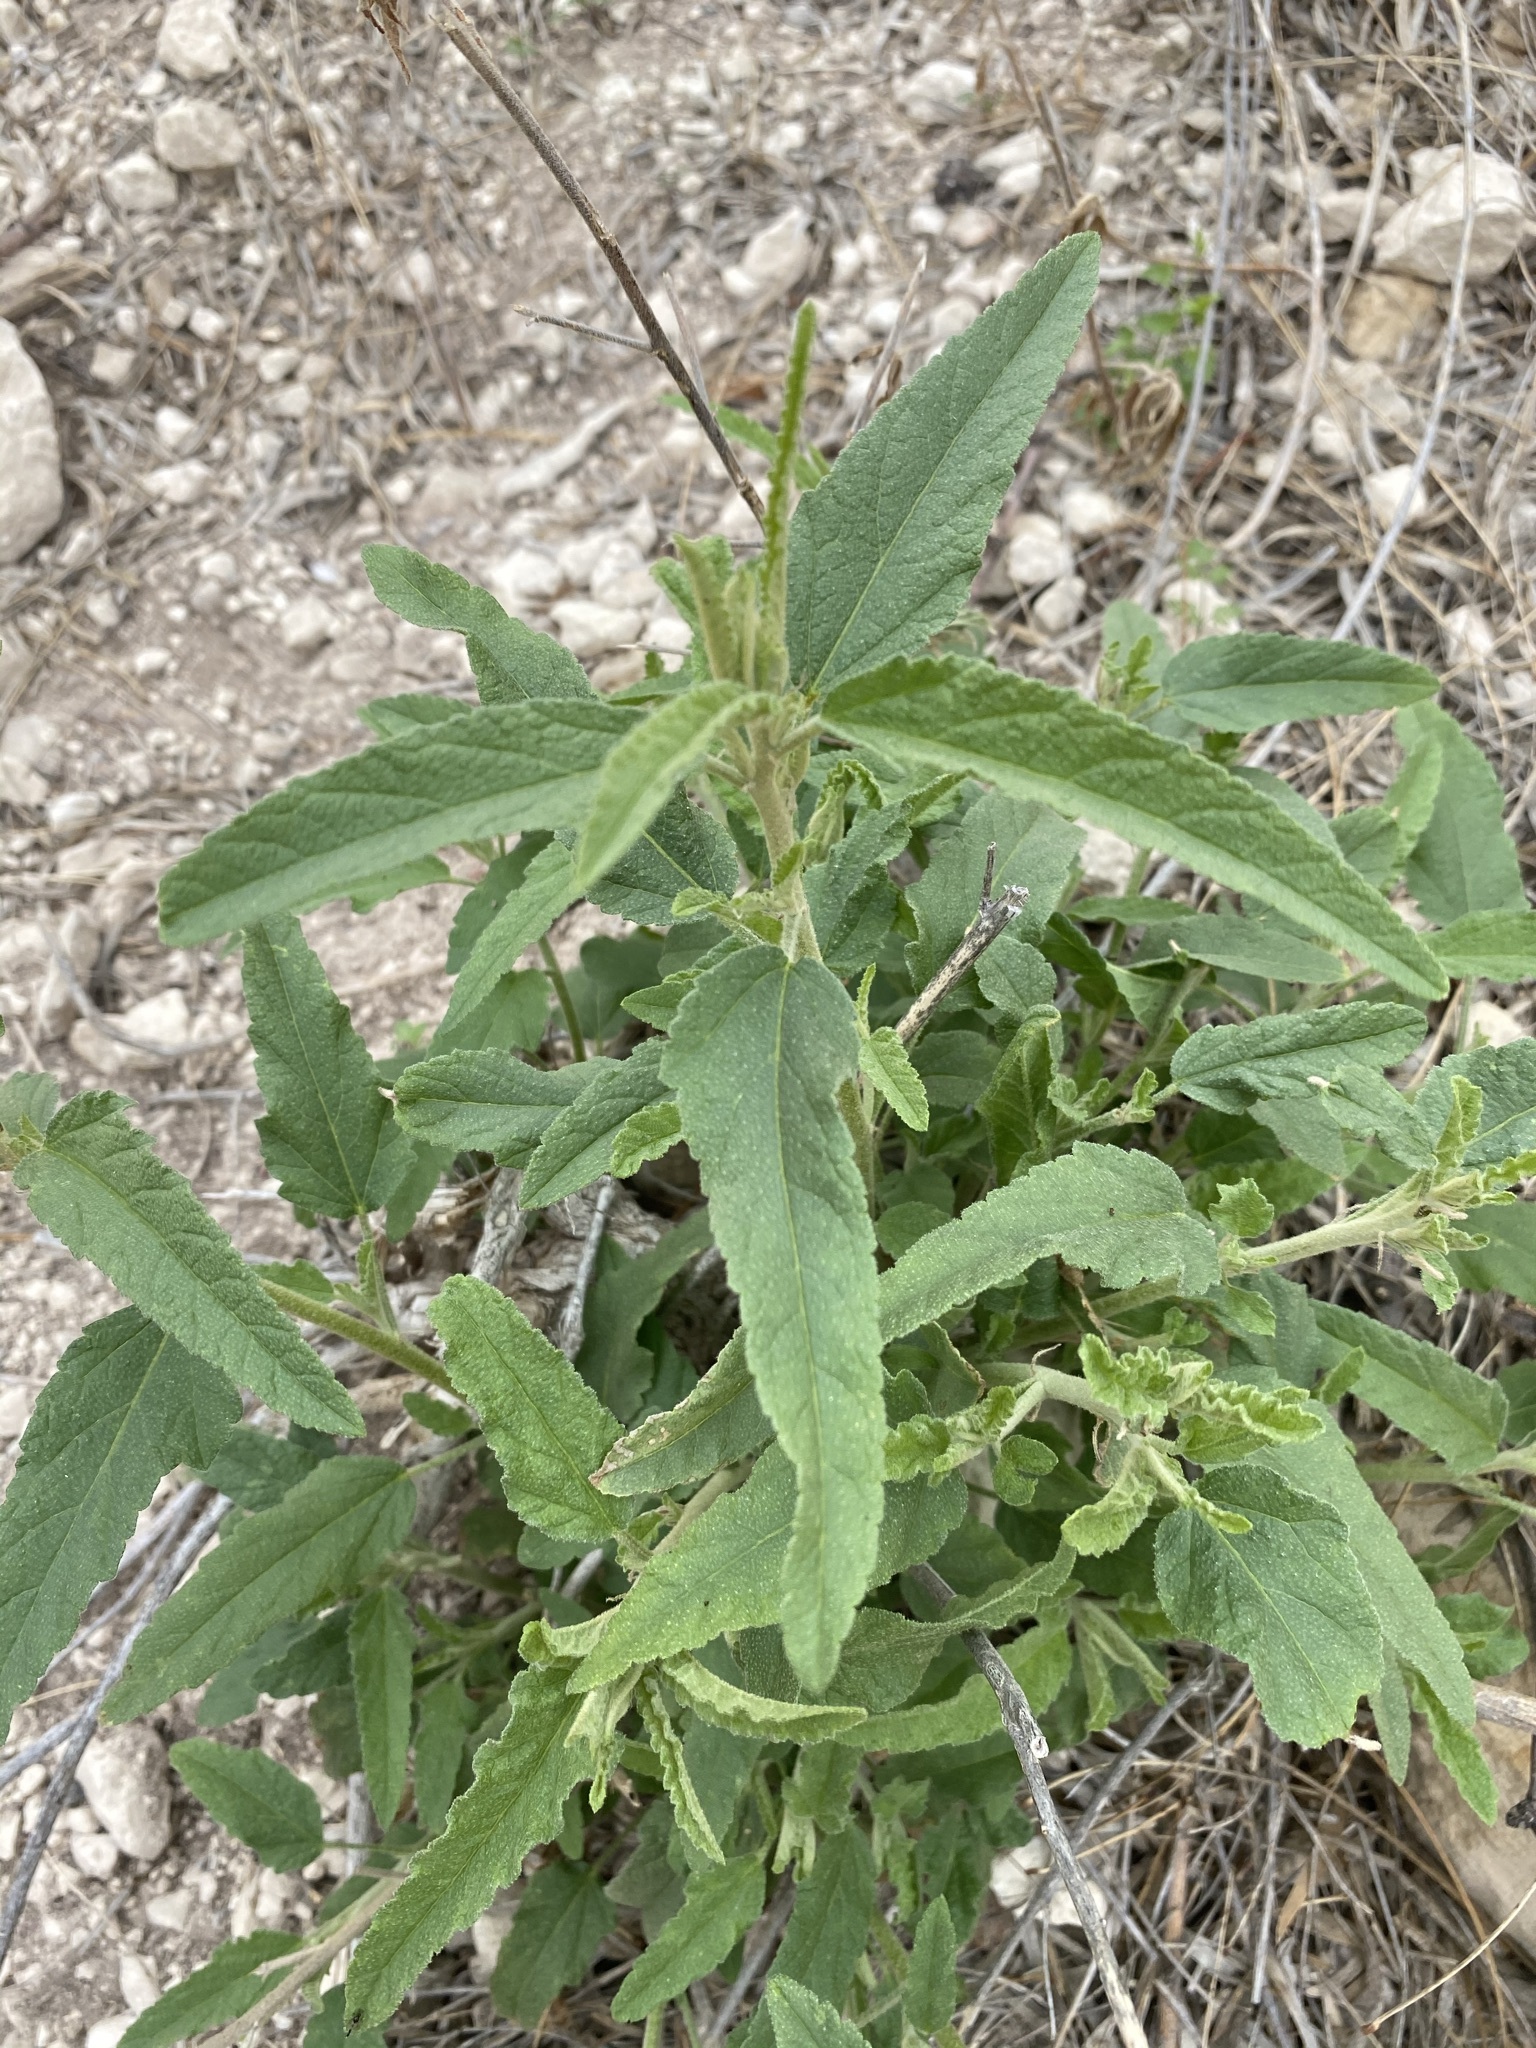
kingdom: Plantae
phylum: Tracheophyta
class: Magnoliopsida
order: Malvales
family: Malvaceae
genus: Sphaeralcea
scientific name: Sphaeralcea angustifolia
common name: Copper globe-mallow
